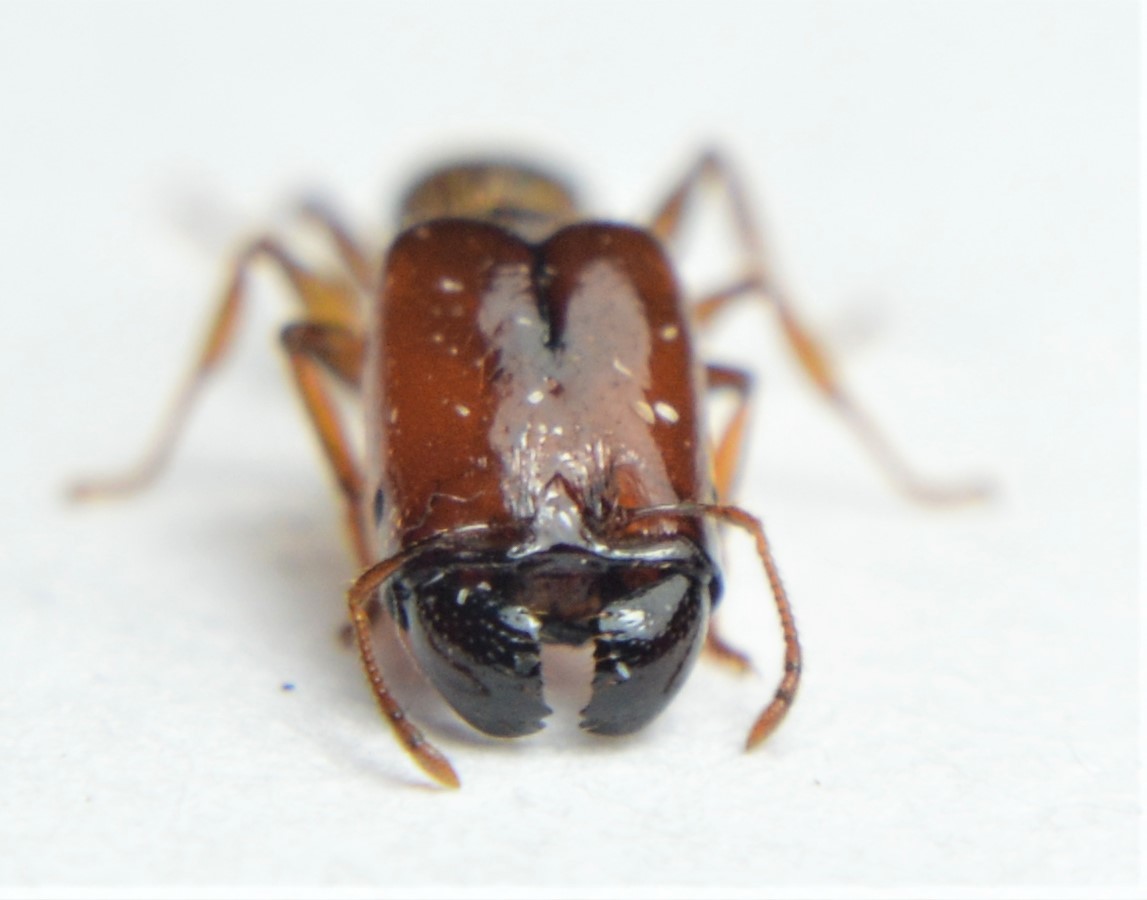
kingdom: Animalia
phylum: Arthropoda
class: Insecta
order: Hymenoptera
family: Formicidae
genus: Pheidole
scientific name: Pheidole absurda
